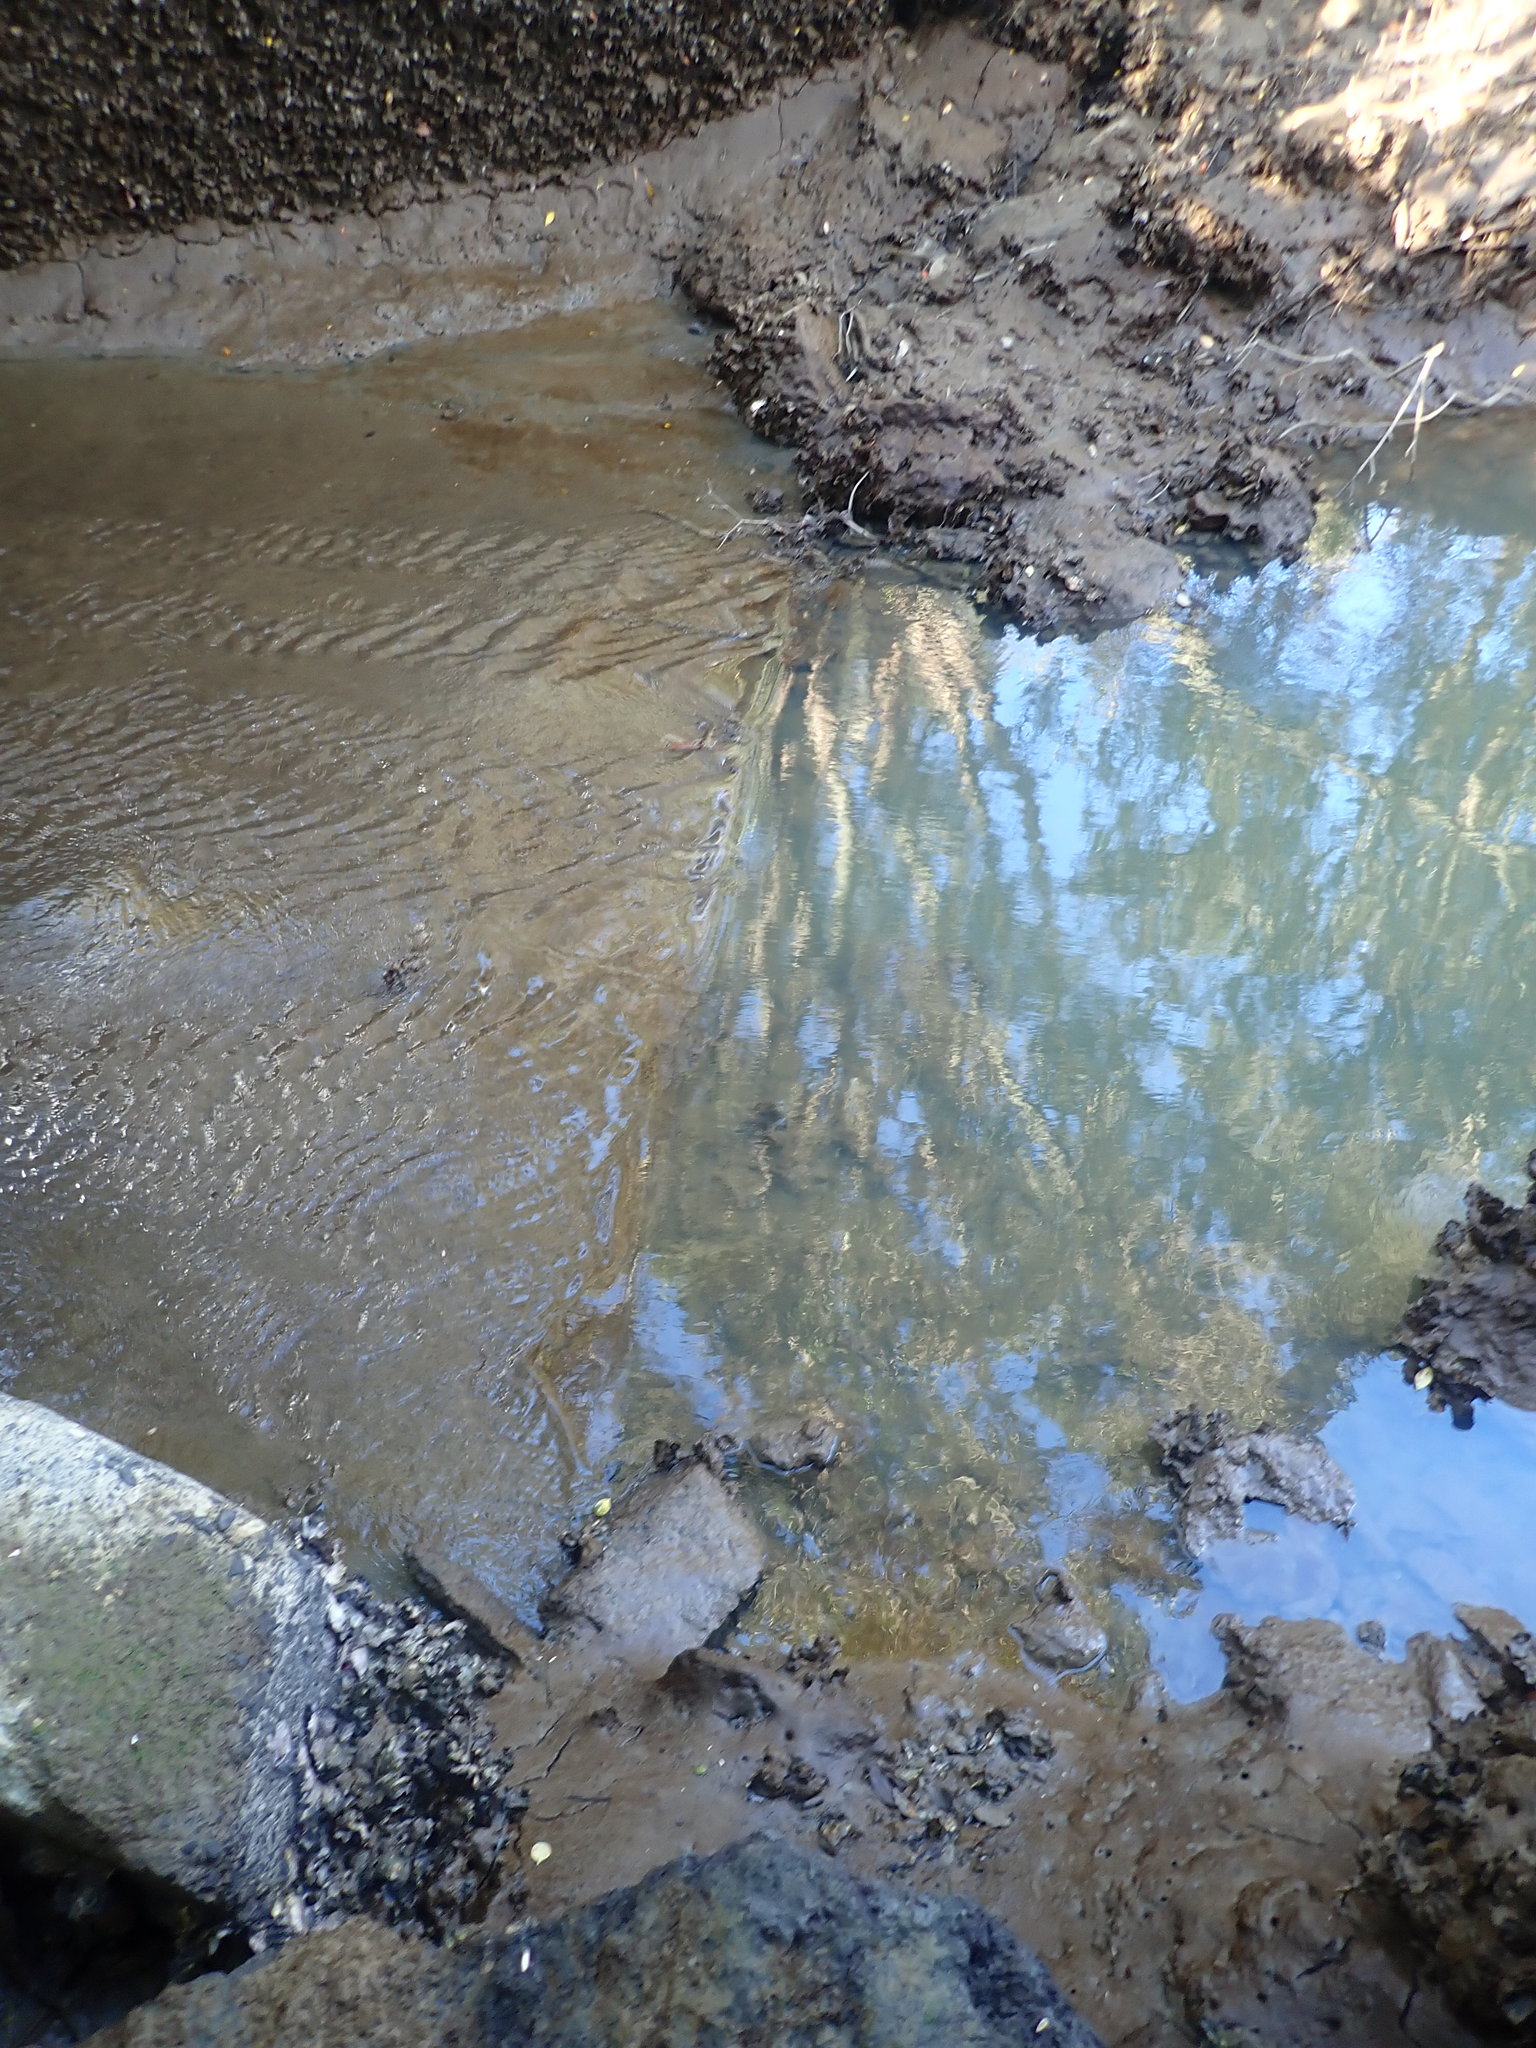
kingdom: Animalia
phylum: Mollusca
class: Bivalvia
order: Ostreida
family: Ostreidae
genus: Magallana
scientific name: Magallana gigas
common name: Pacific oyster
